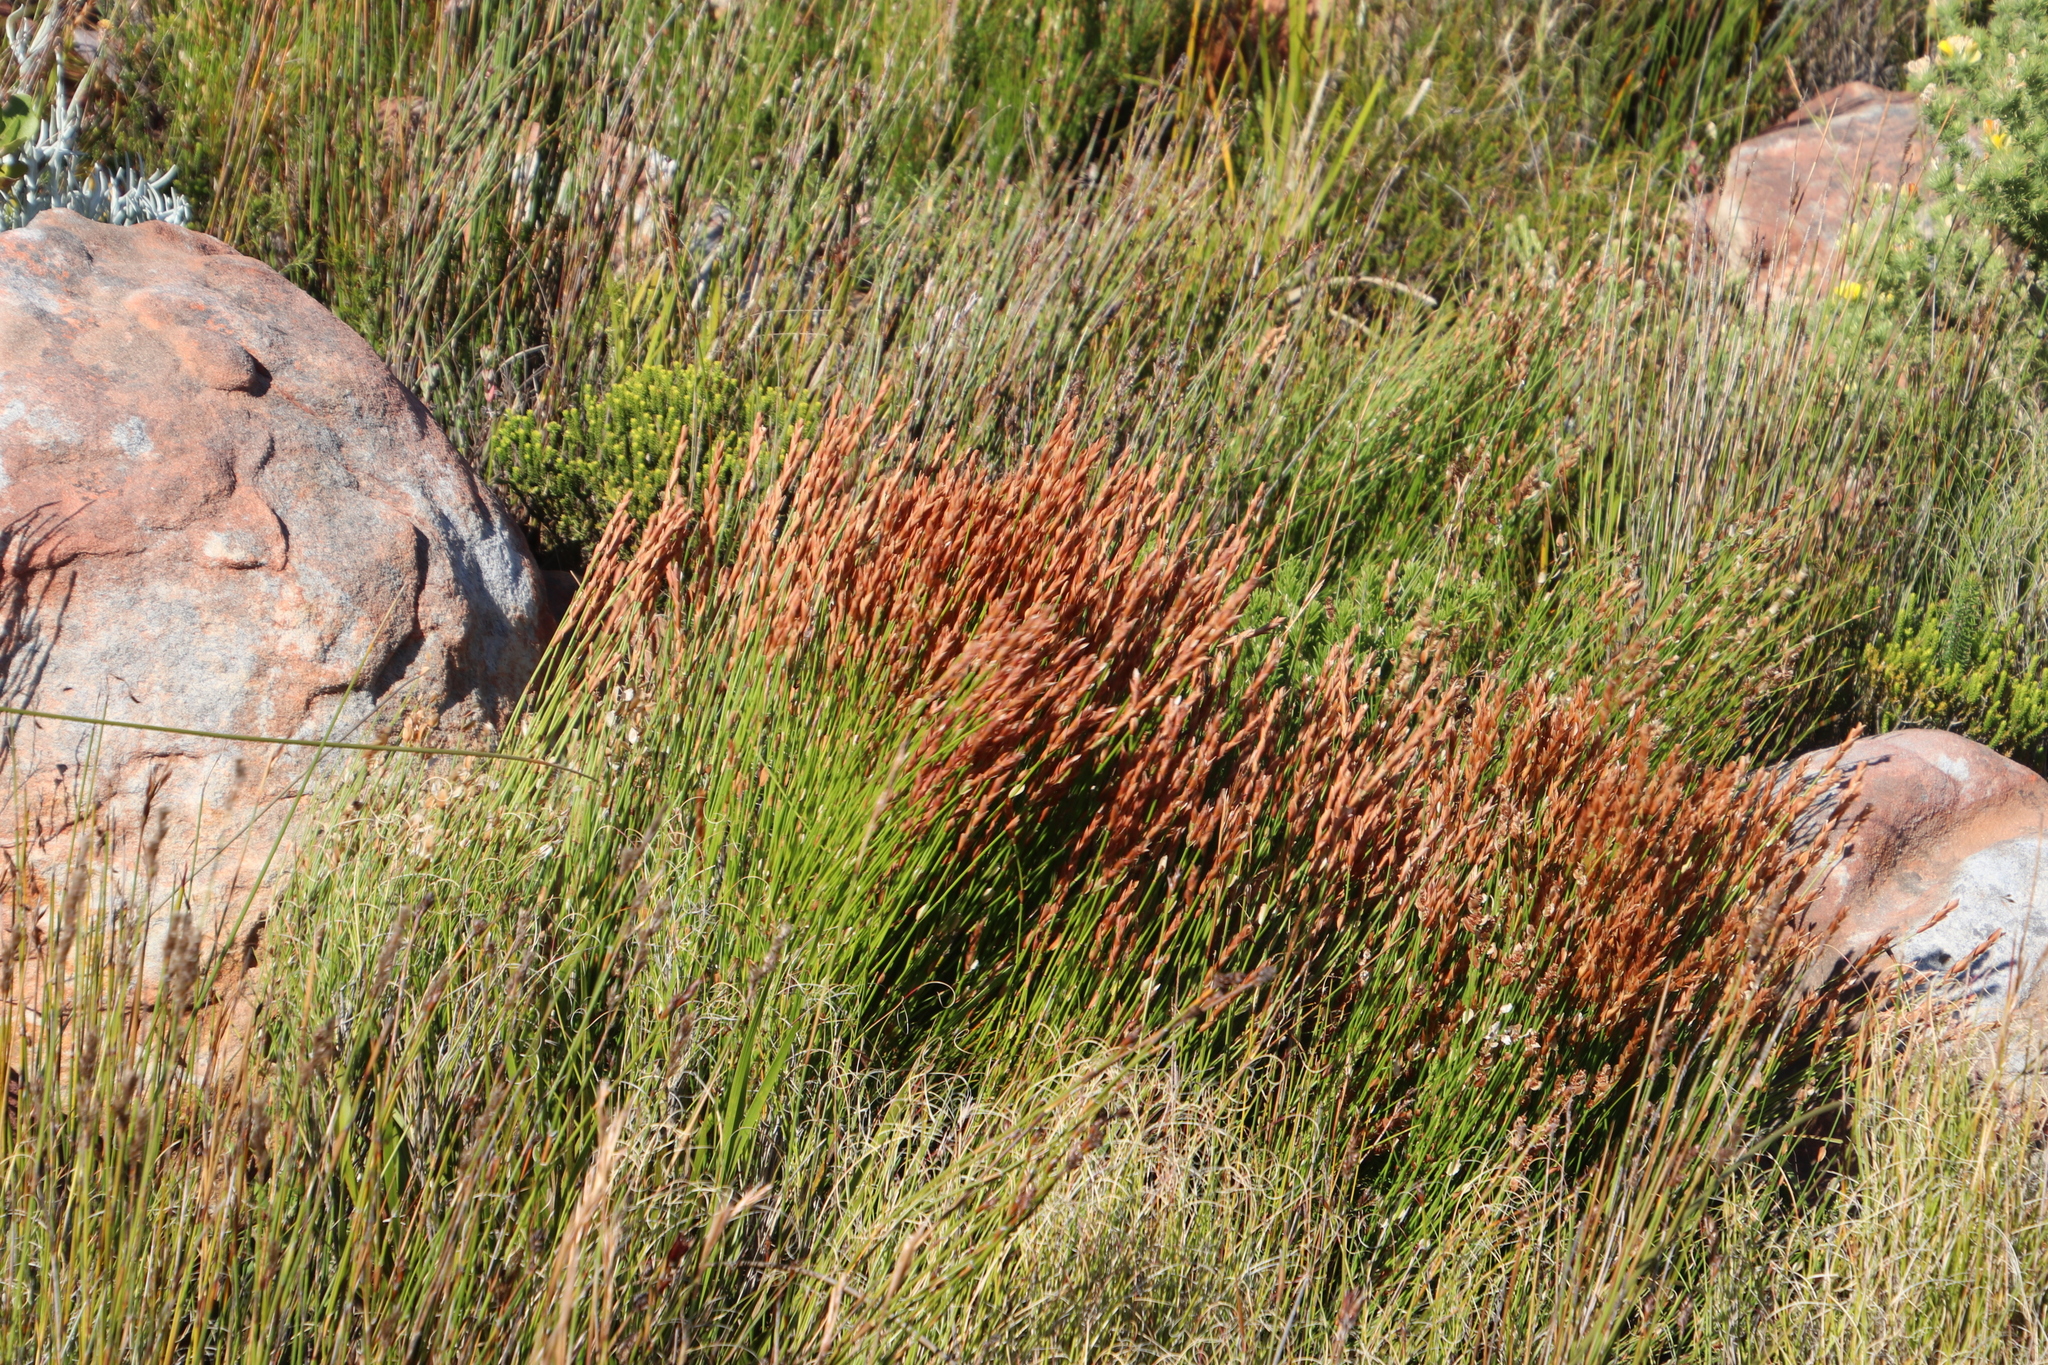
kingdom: Plantae
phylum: Tracheophyta
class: Liliopsida
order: Poales
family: Restionaceae
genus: Elegia
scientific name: Elegia stipularis
